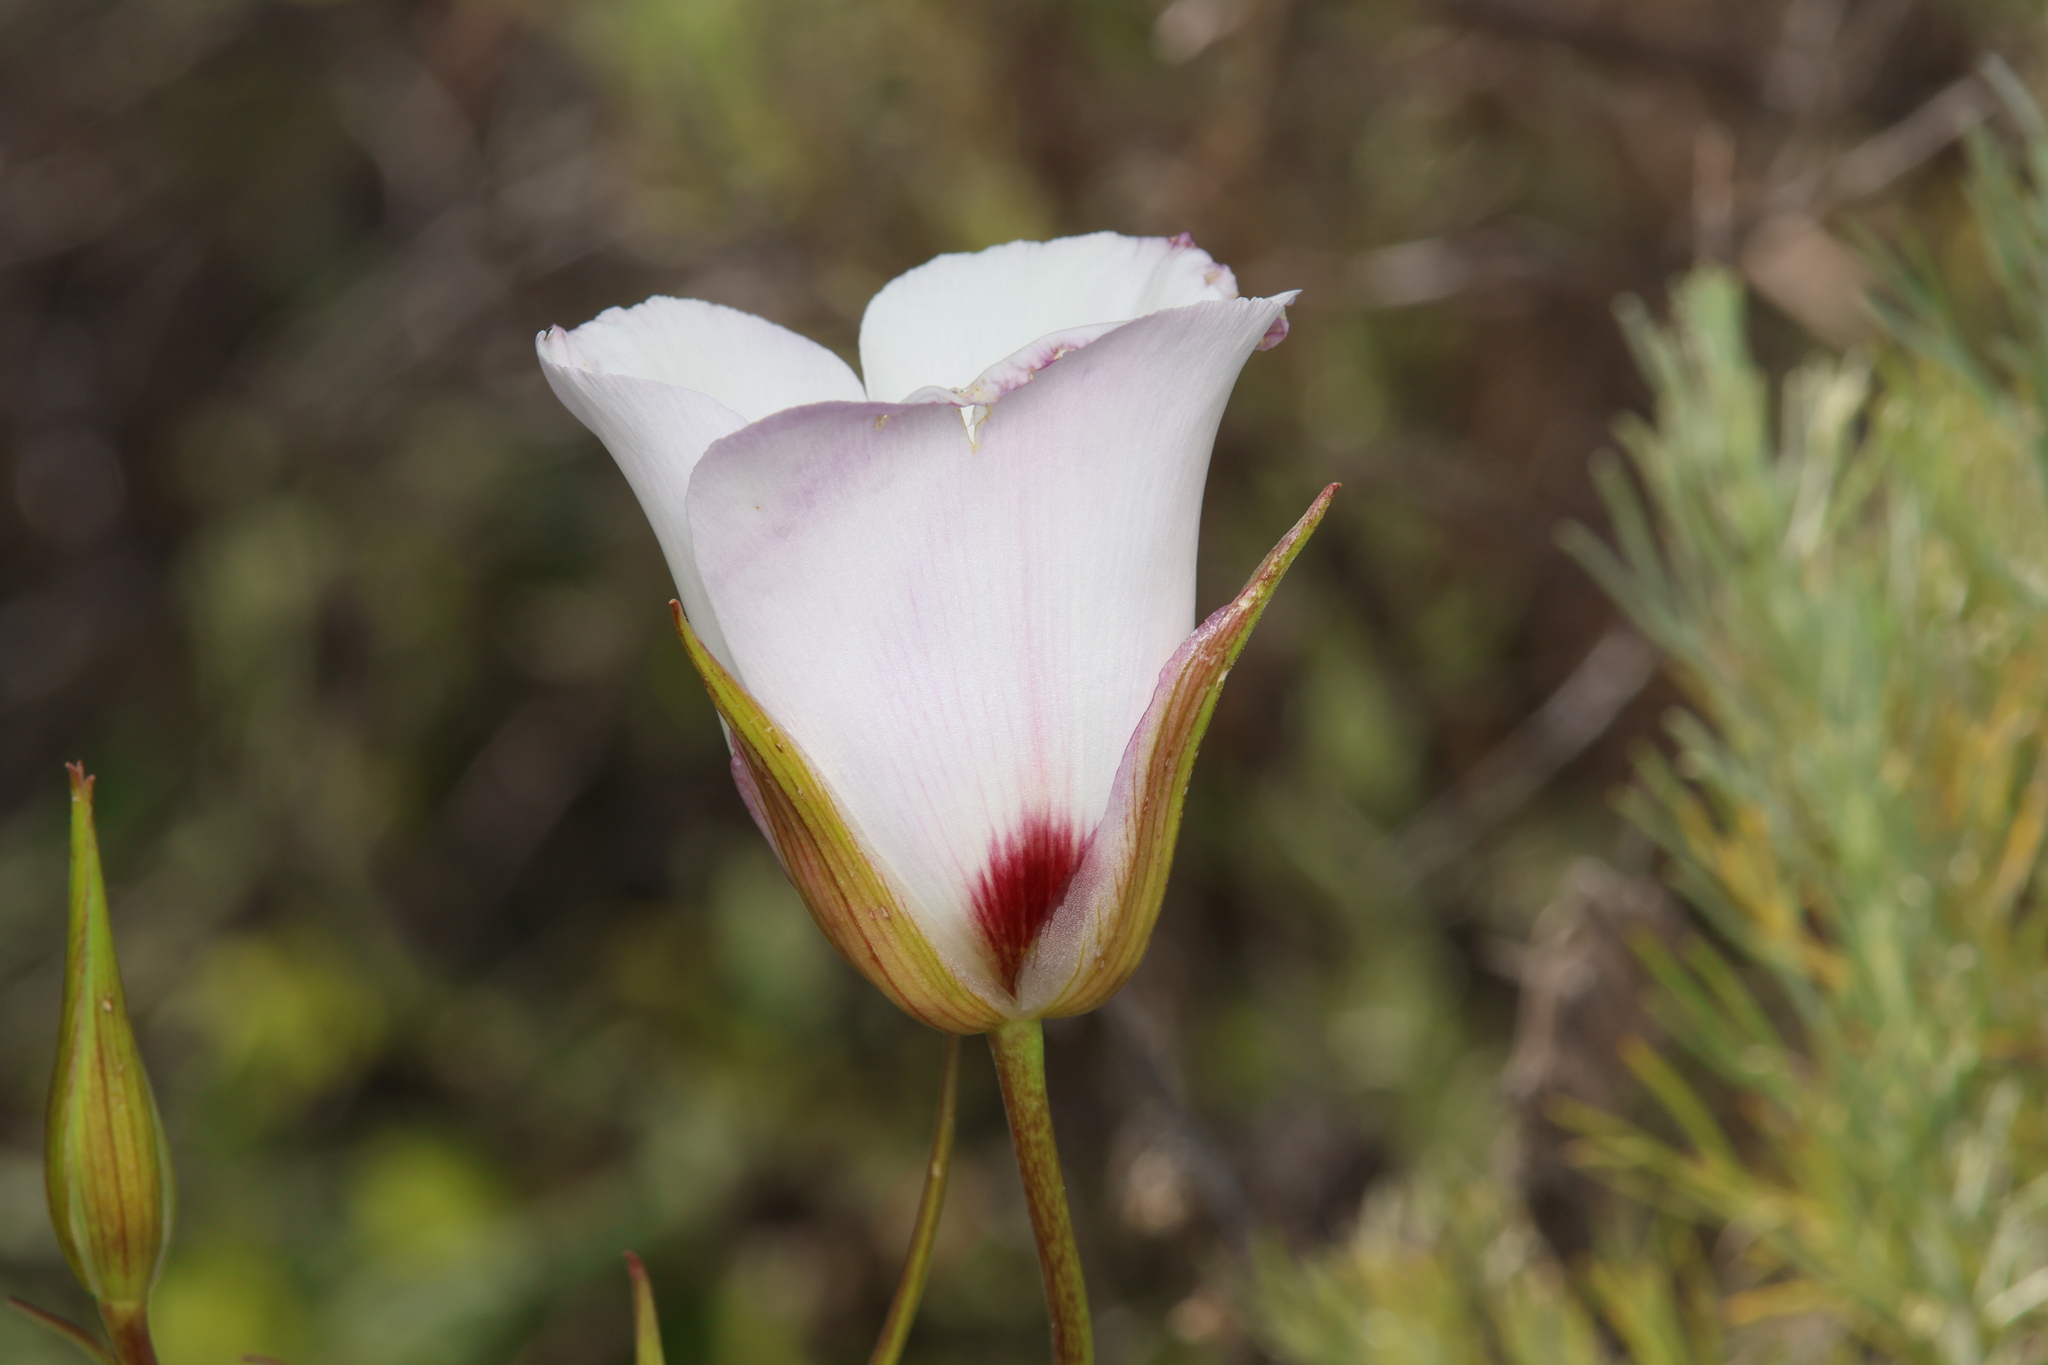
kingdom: Plantae
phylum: Tracheophyta
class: Liliopsida
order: Liliales
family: Liliaceae
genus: Calochortus
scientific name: Calochortus catalinae
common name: Catalina mariposa-lily
